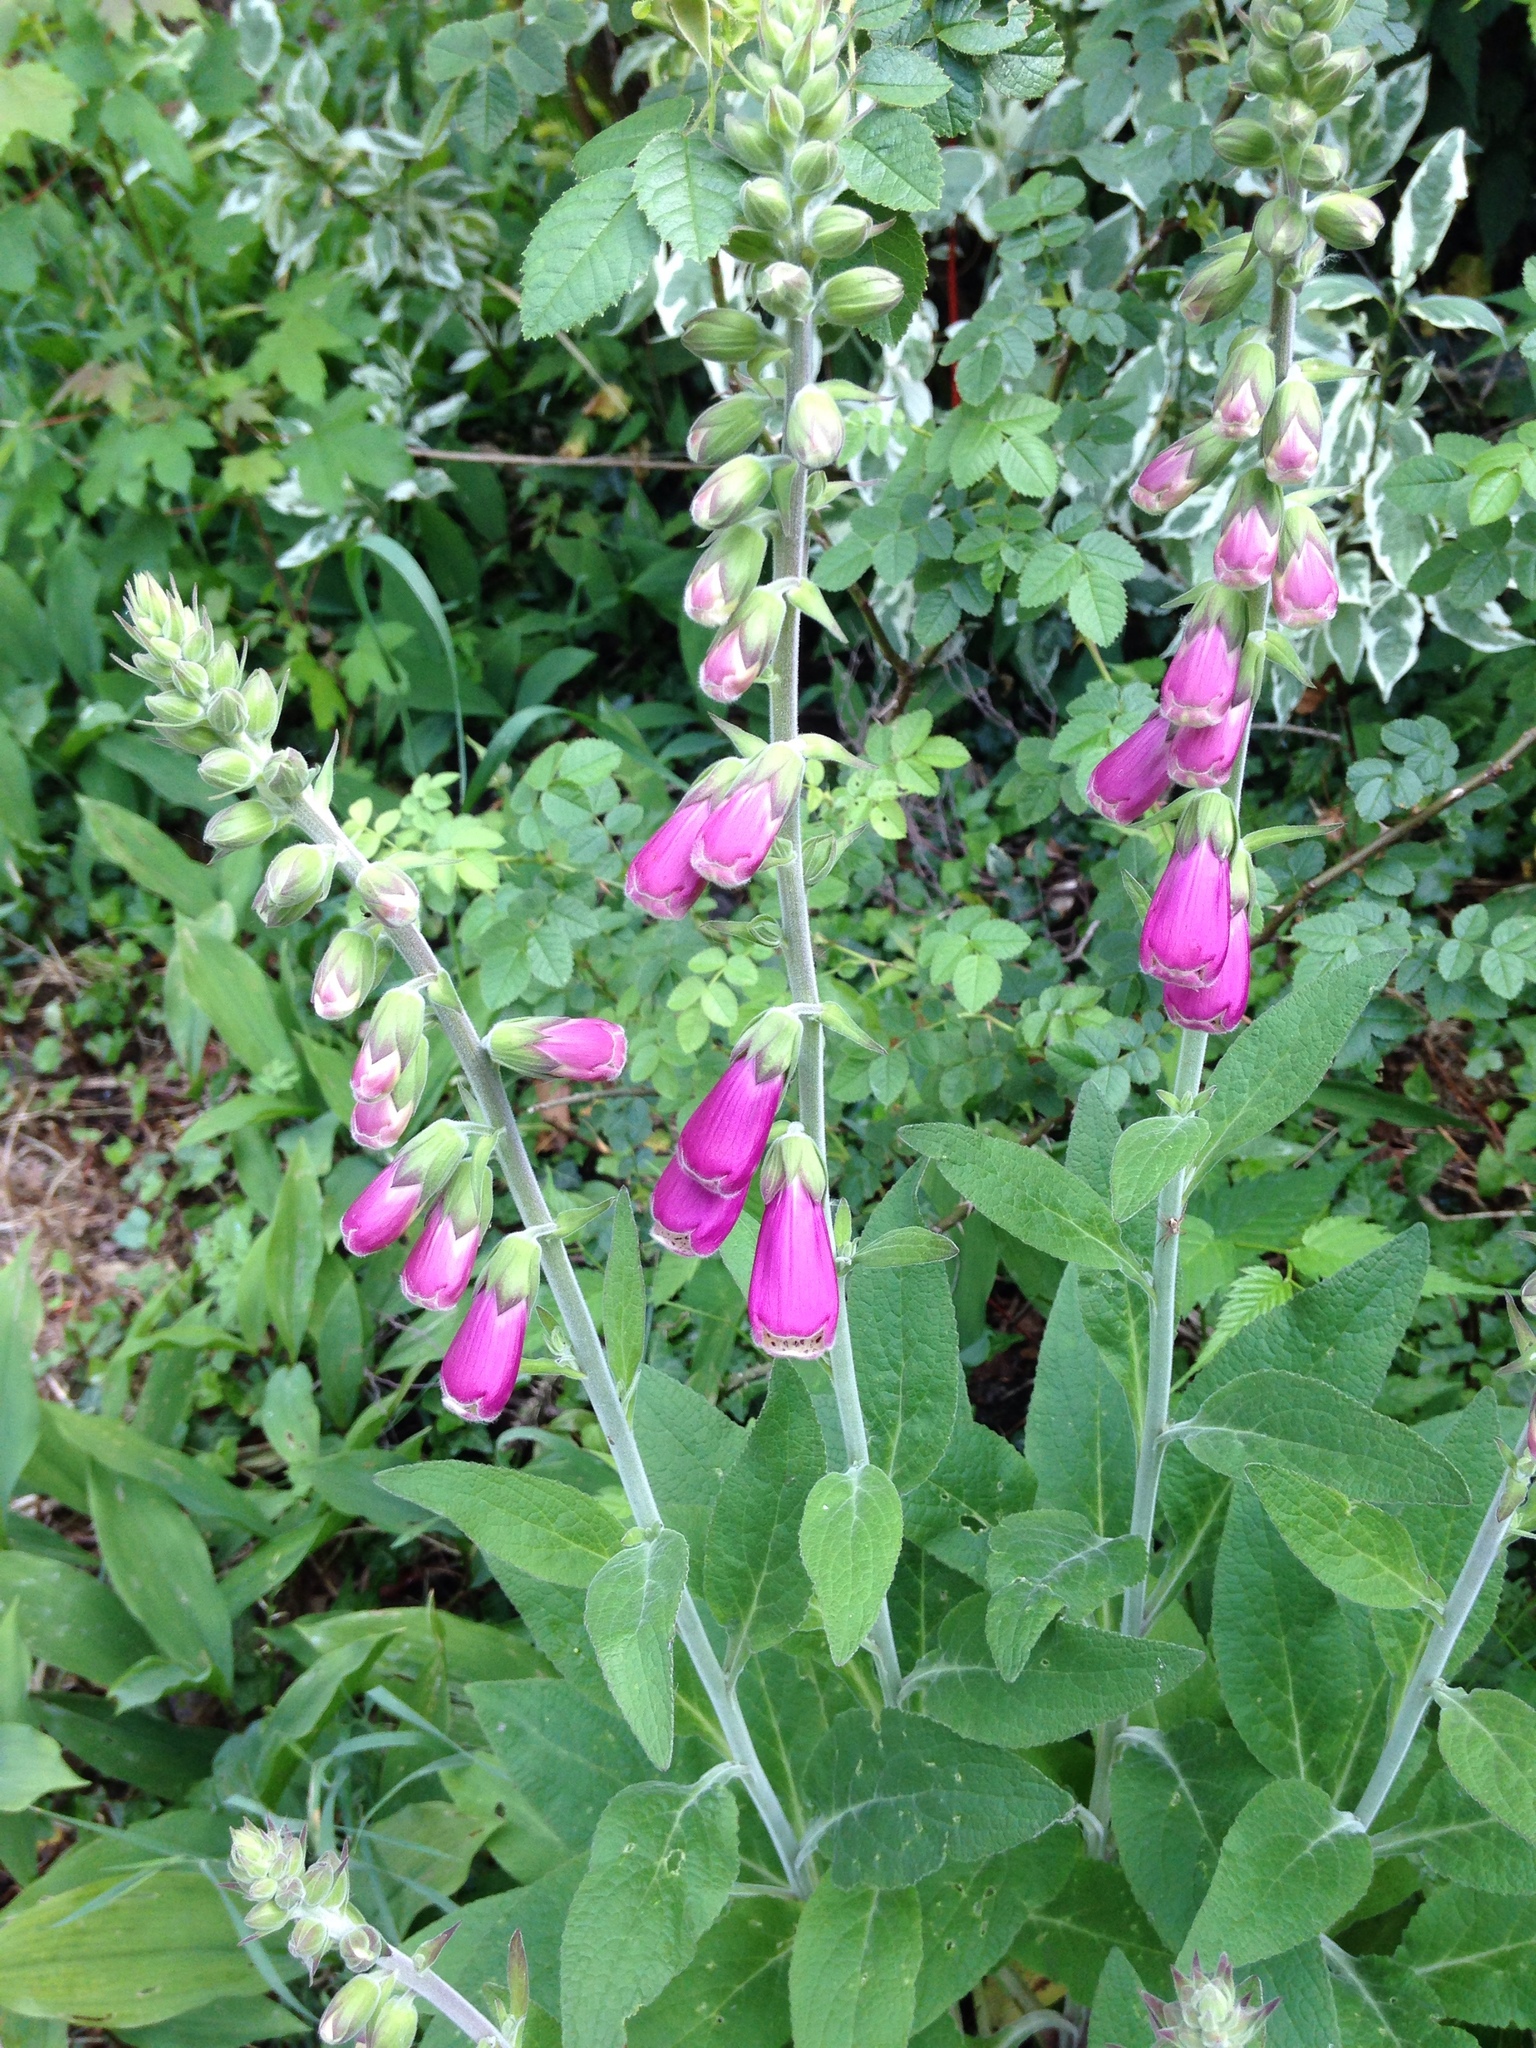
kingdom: Plantae
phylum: Tracheophyta
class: Magnoliopsida
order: Lamiales
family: Plantaginaceae
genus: Digitalis
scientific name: Digitalis purpurea
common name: Foxglove
